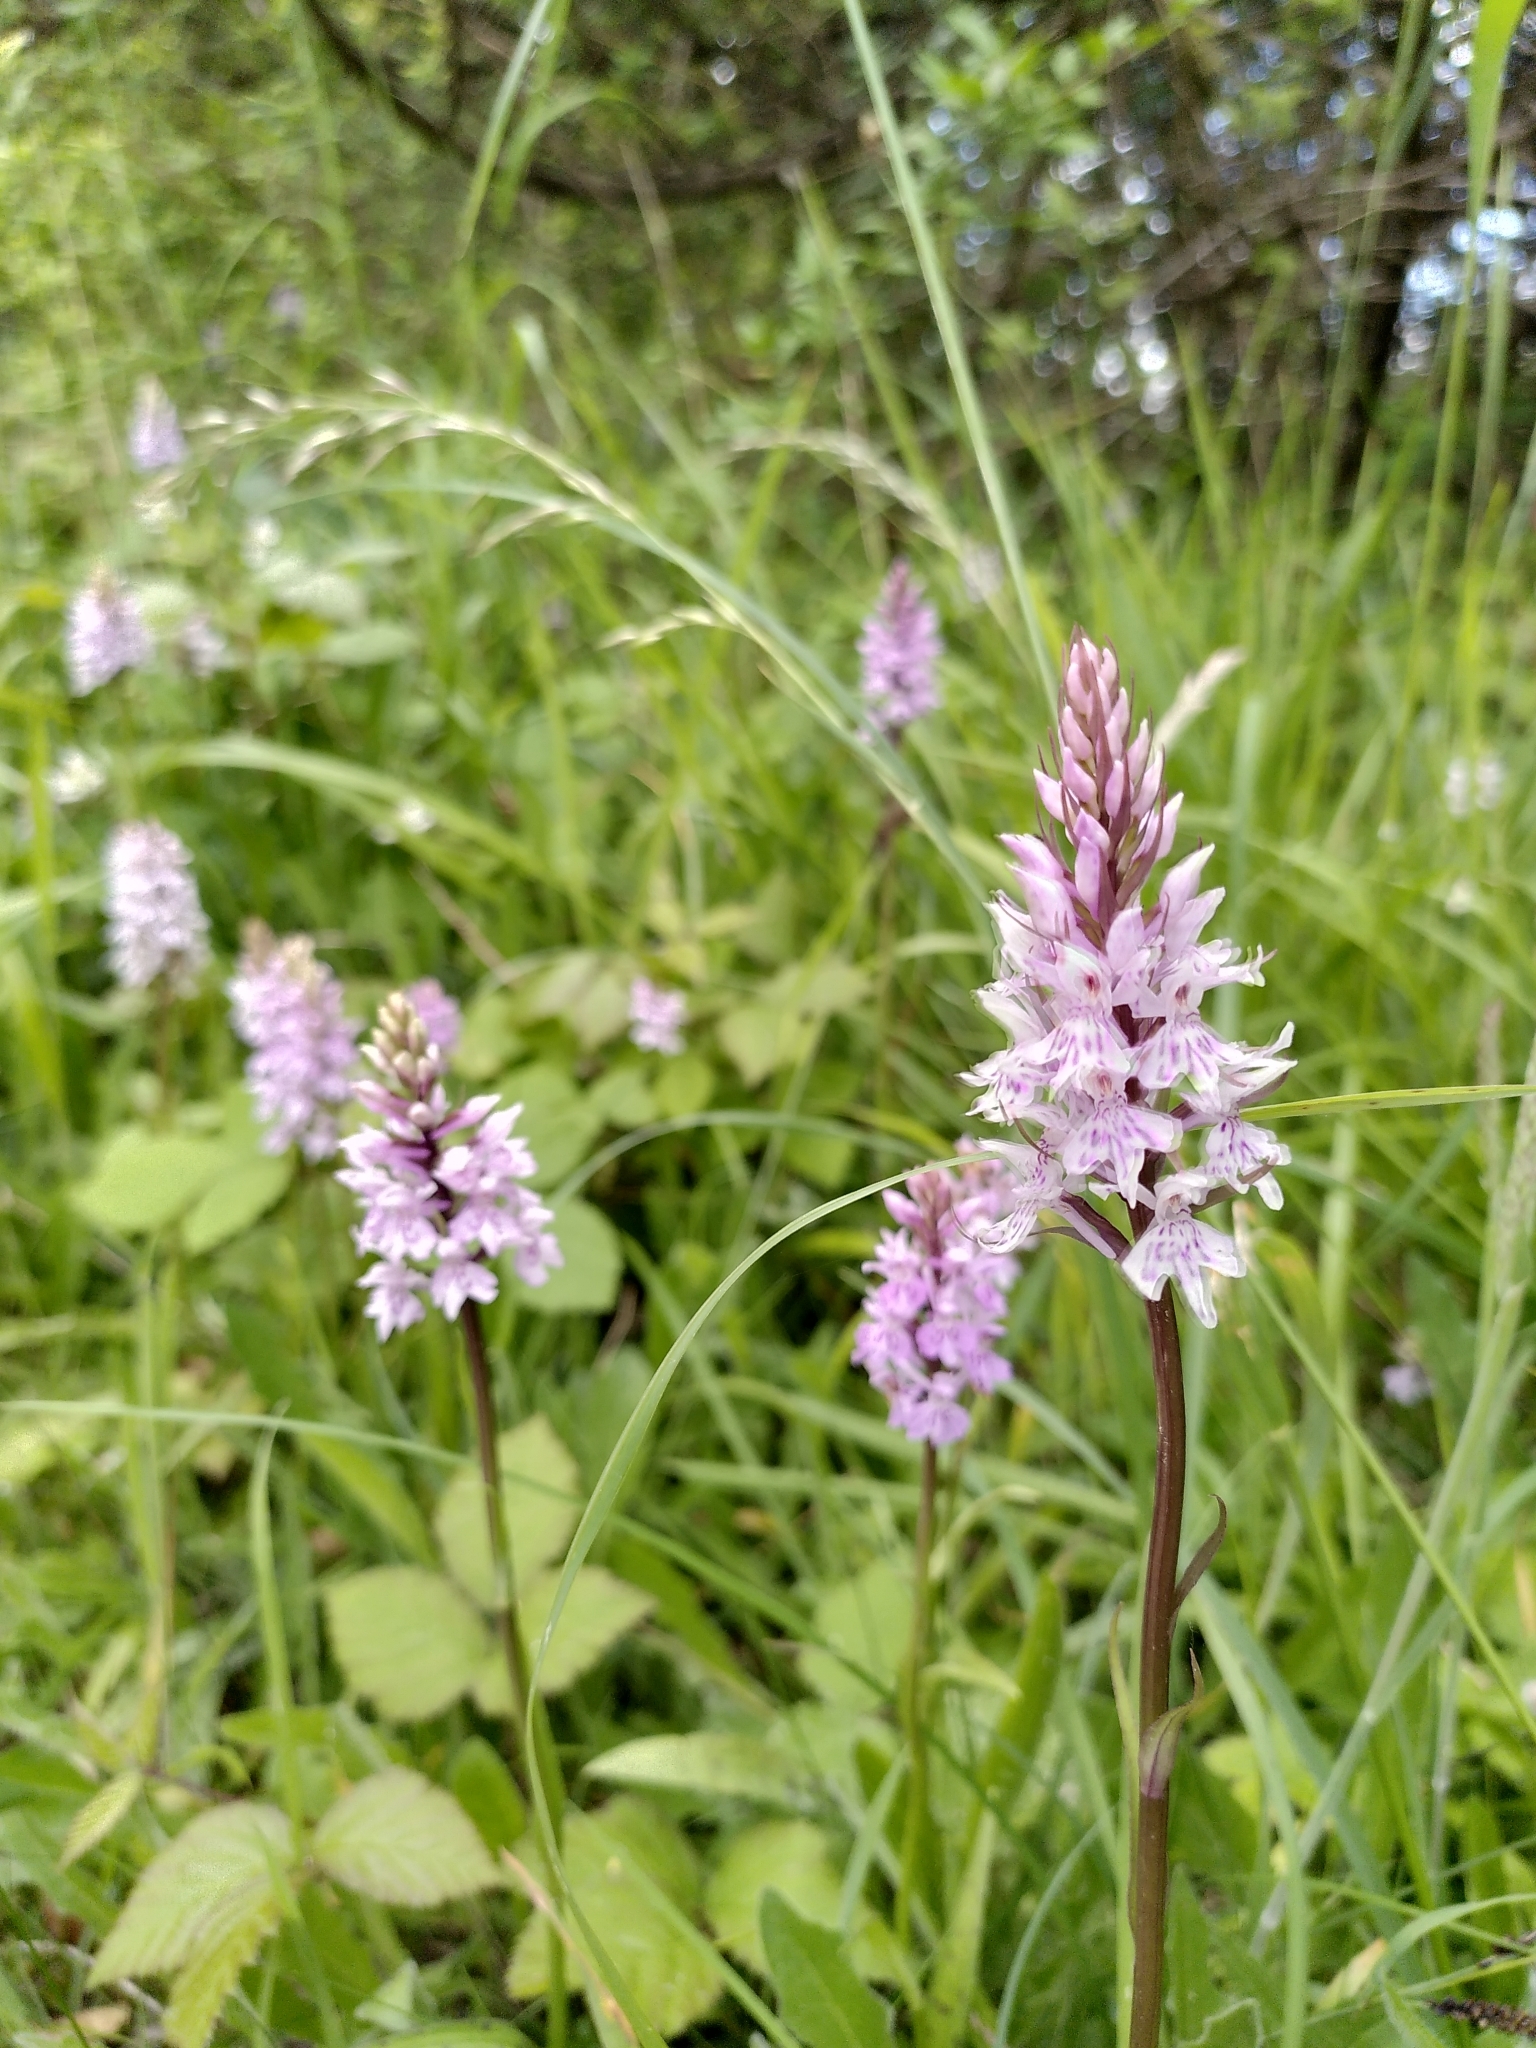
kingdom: Plantae
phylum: Tracheophyta
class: Liliopsida
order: Asparagales
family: Orchidaceae
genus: Dactylorhiza
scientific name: Dactylorhiza maculata
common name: Heath spotted-orchid
